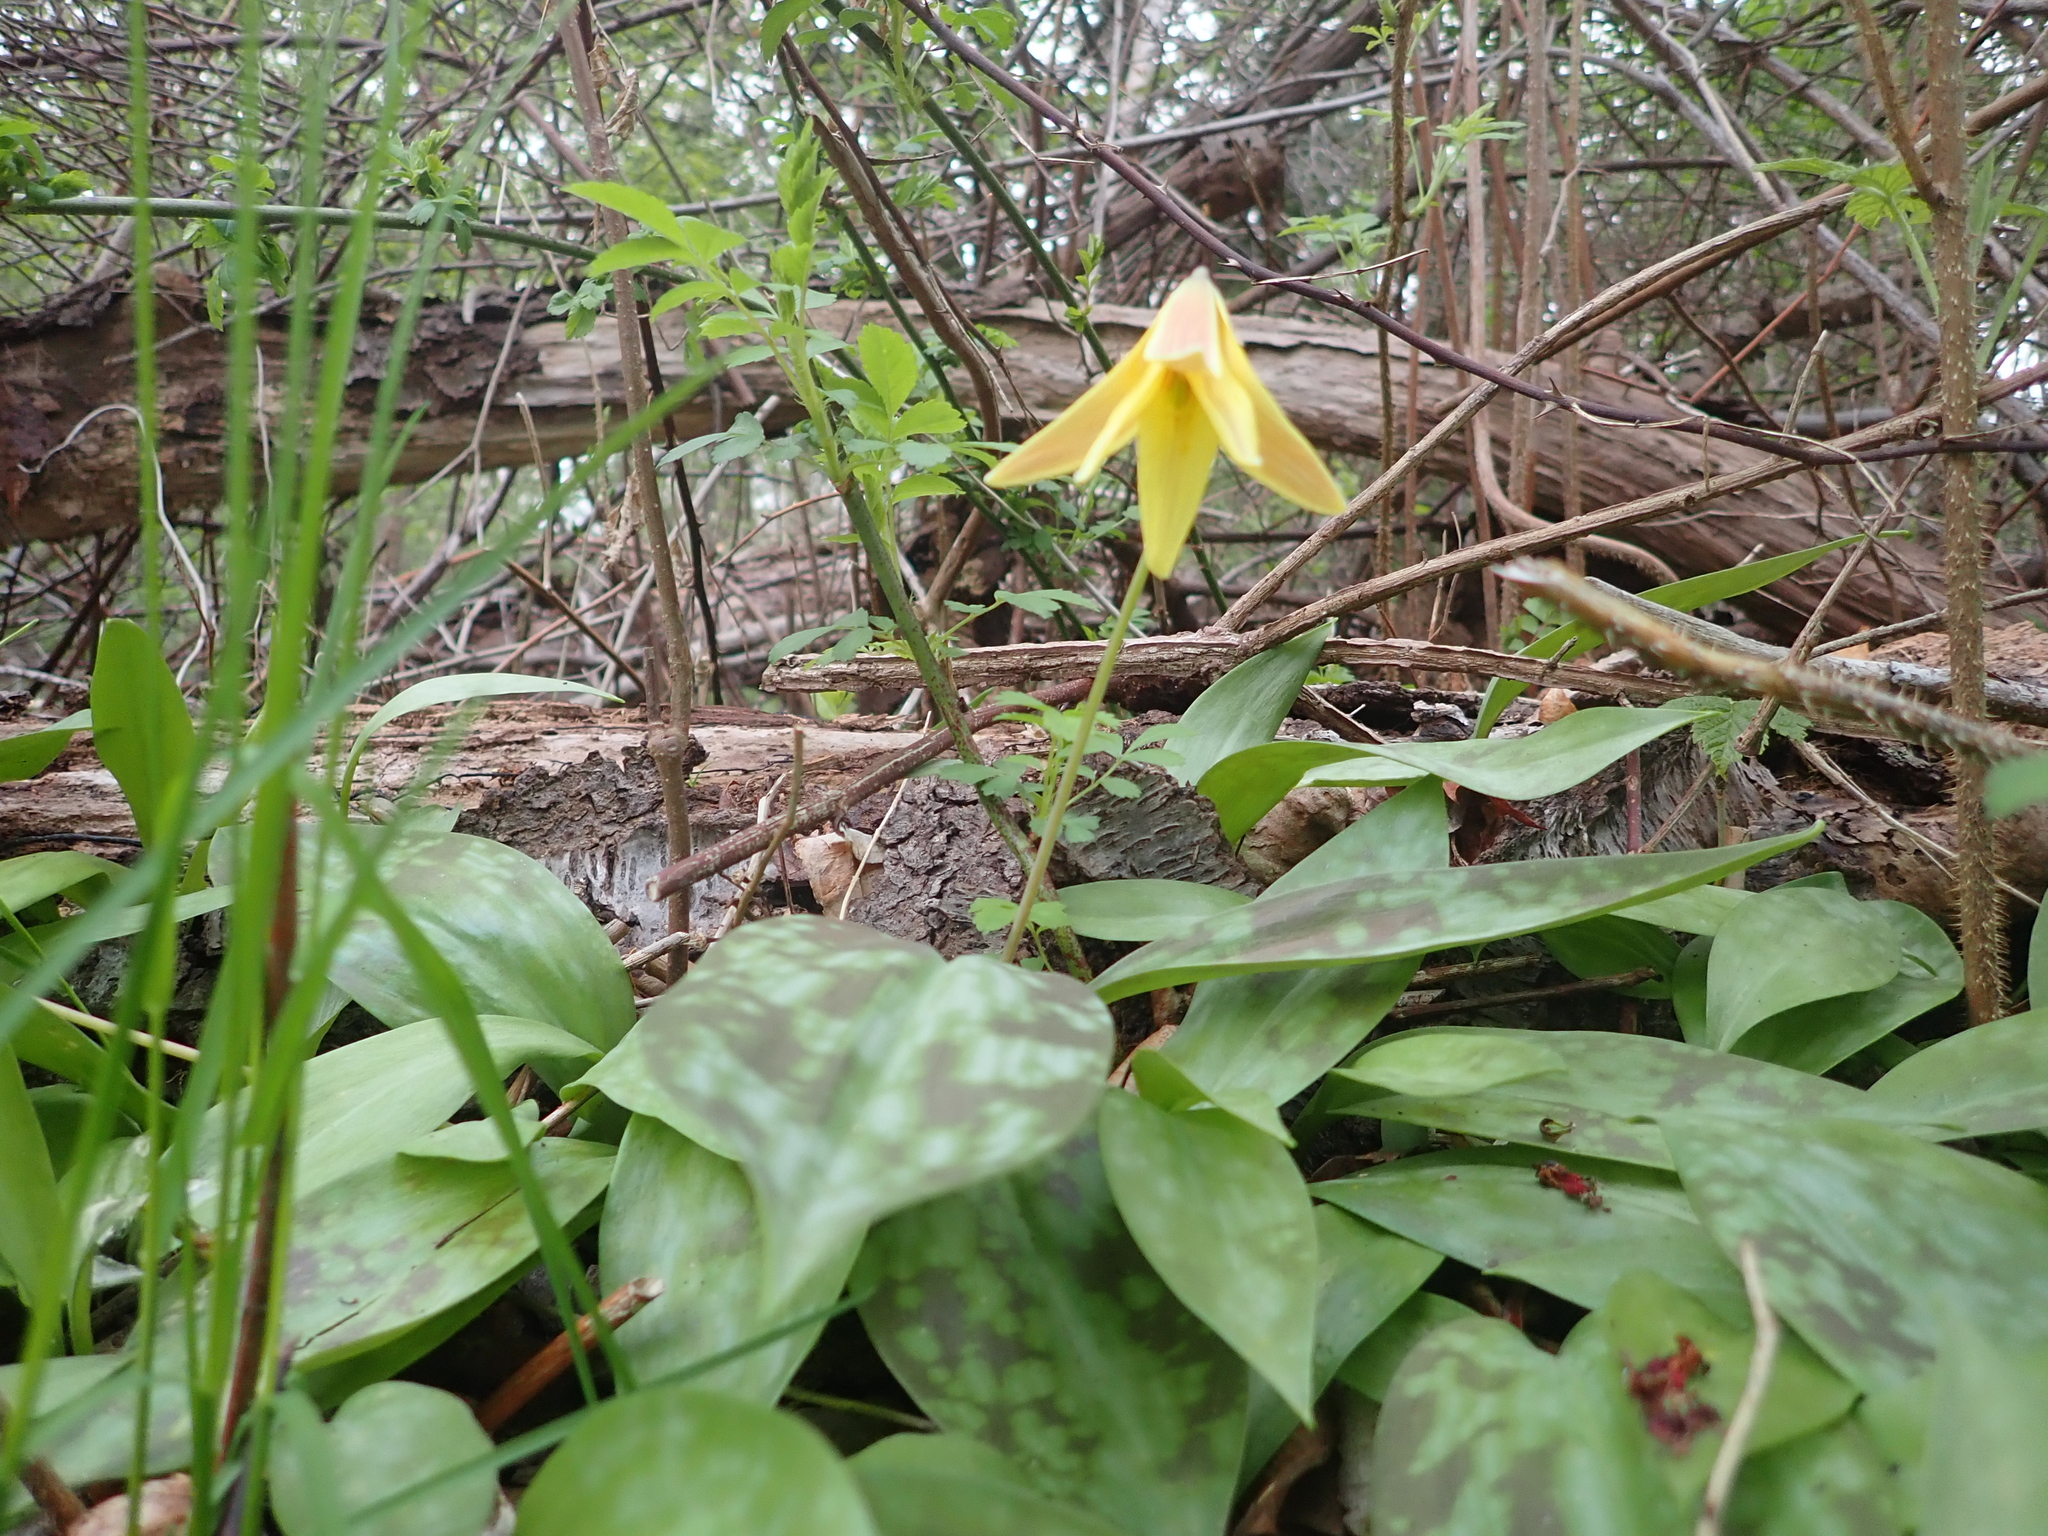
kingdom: Plantae
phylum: Tracheophyta
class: Liliopsida
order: Liliales
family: Liliaceae
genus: Erythronium
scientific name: Erythronium americanum
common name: Yellow adder's-tongue
